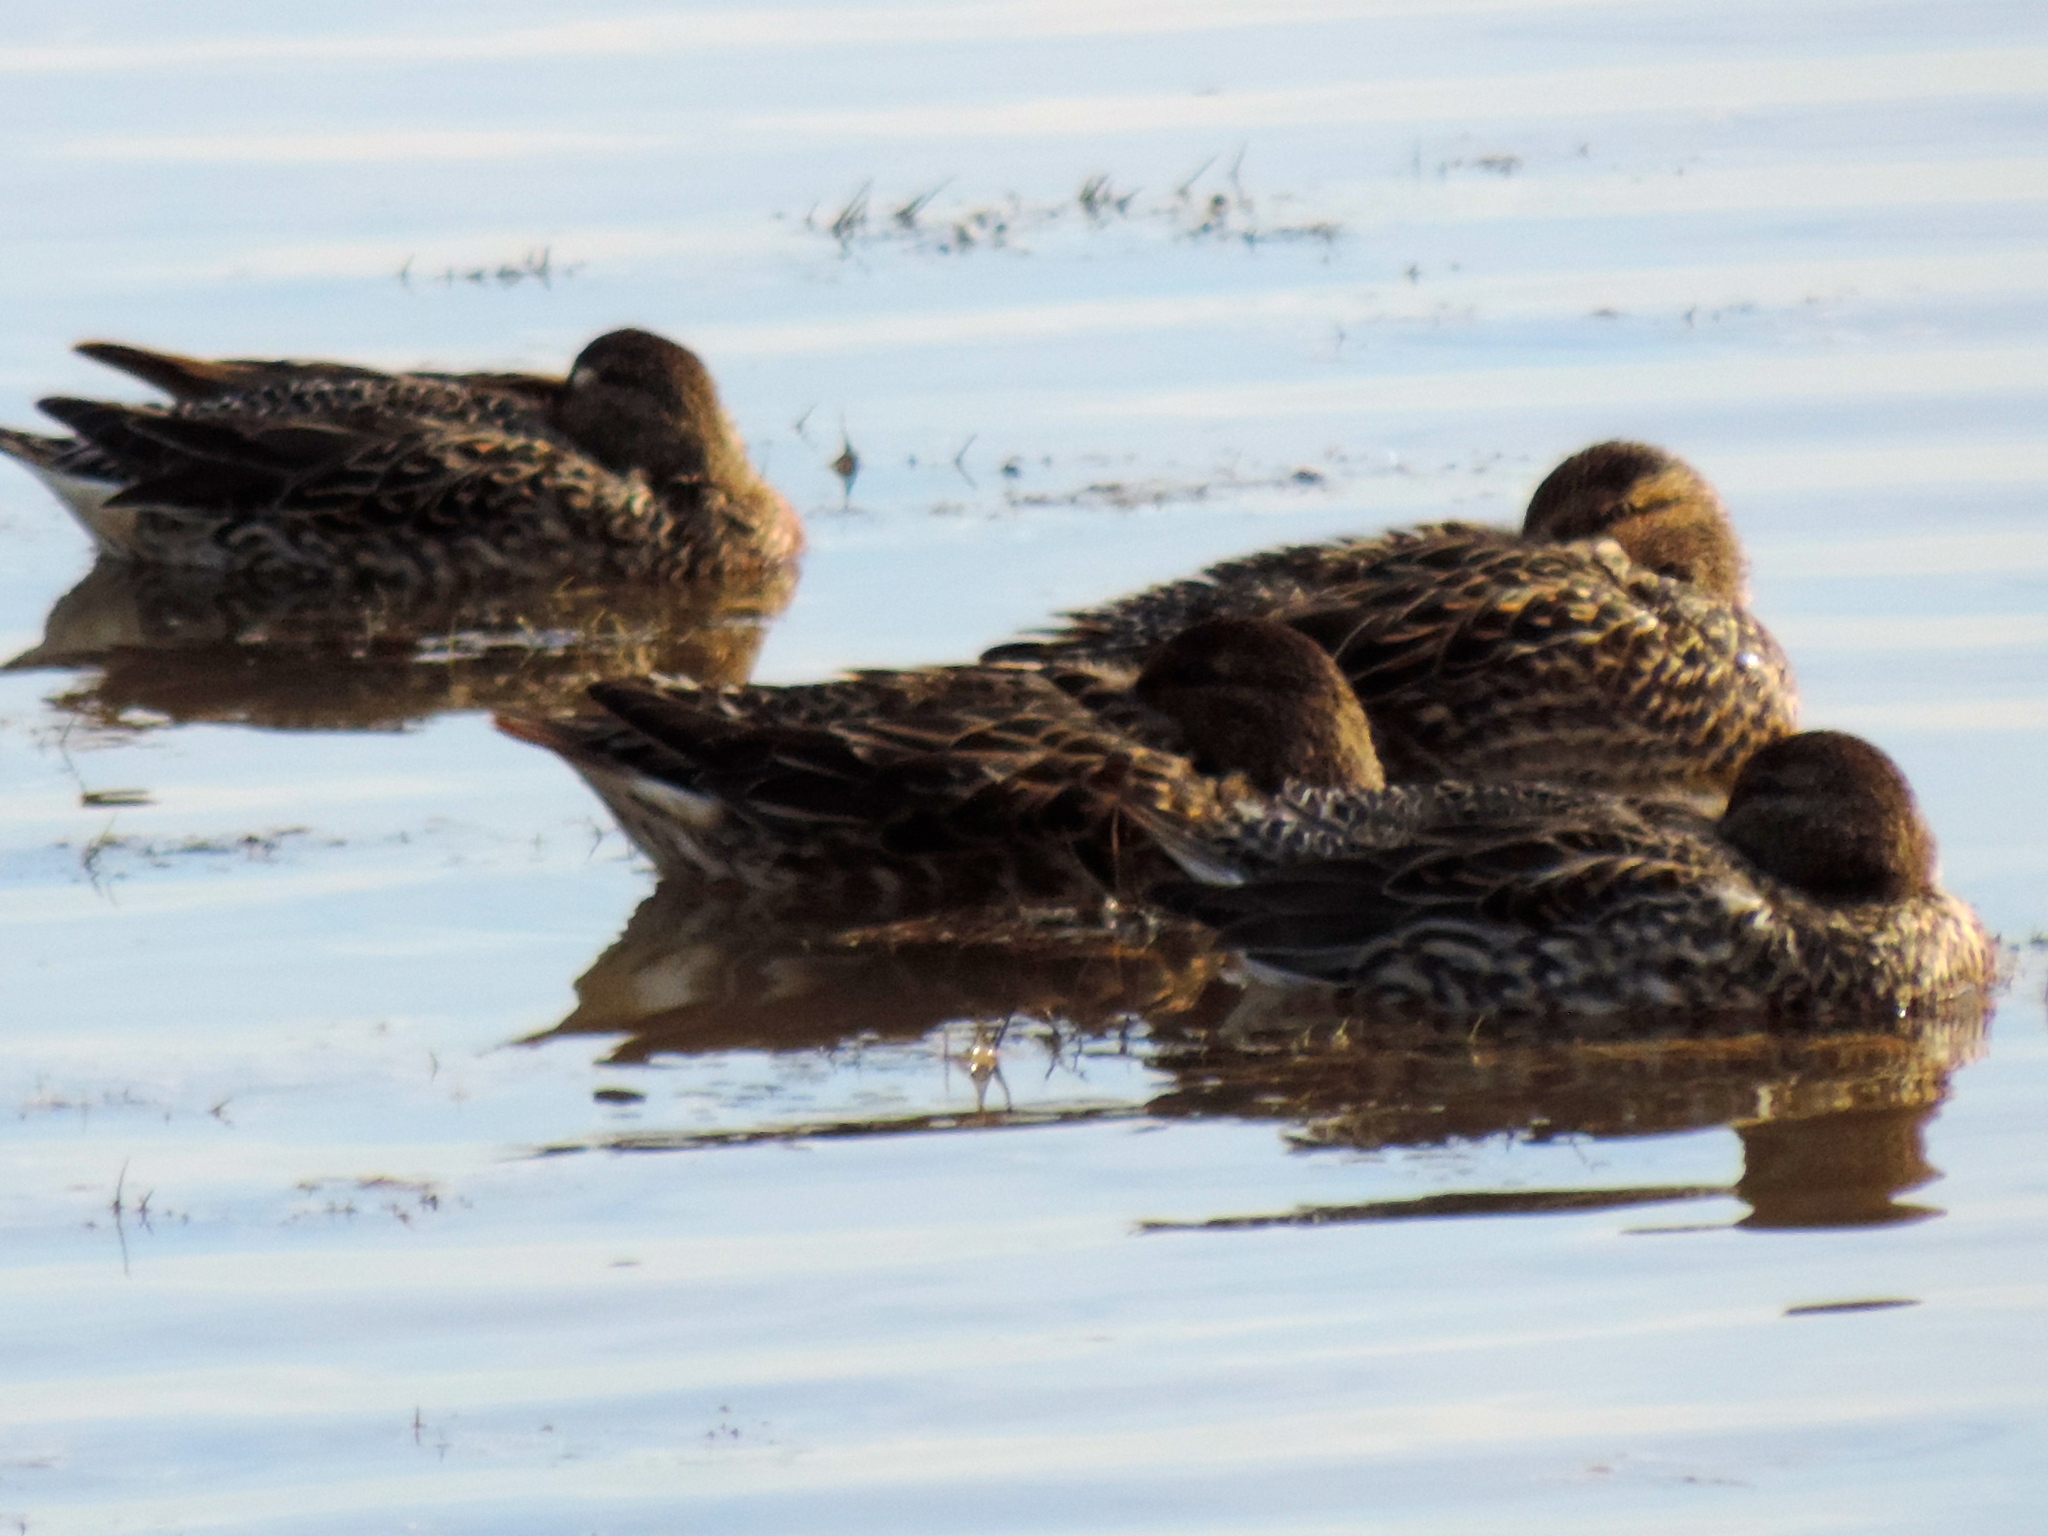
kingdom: Animalia
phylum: Chordata
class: Aves
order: Anseriformes
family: Anatidae
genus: Anas
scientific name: Anas crecca
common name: Eurasian teal
